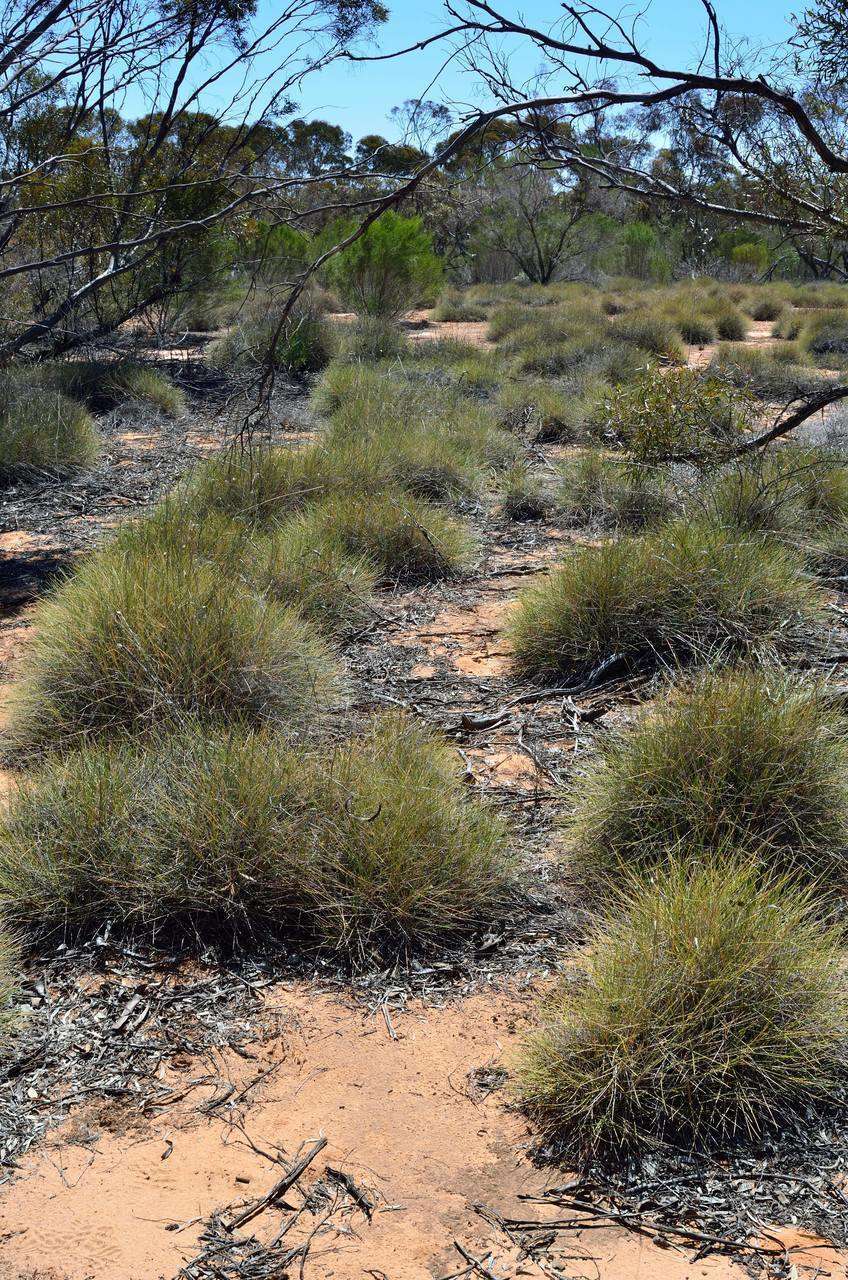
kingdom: Plantae
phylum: Tracheophyta
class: Liliopsida
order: Poales
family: Poaceae
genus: Triodia
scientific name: Triodia scariosa
